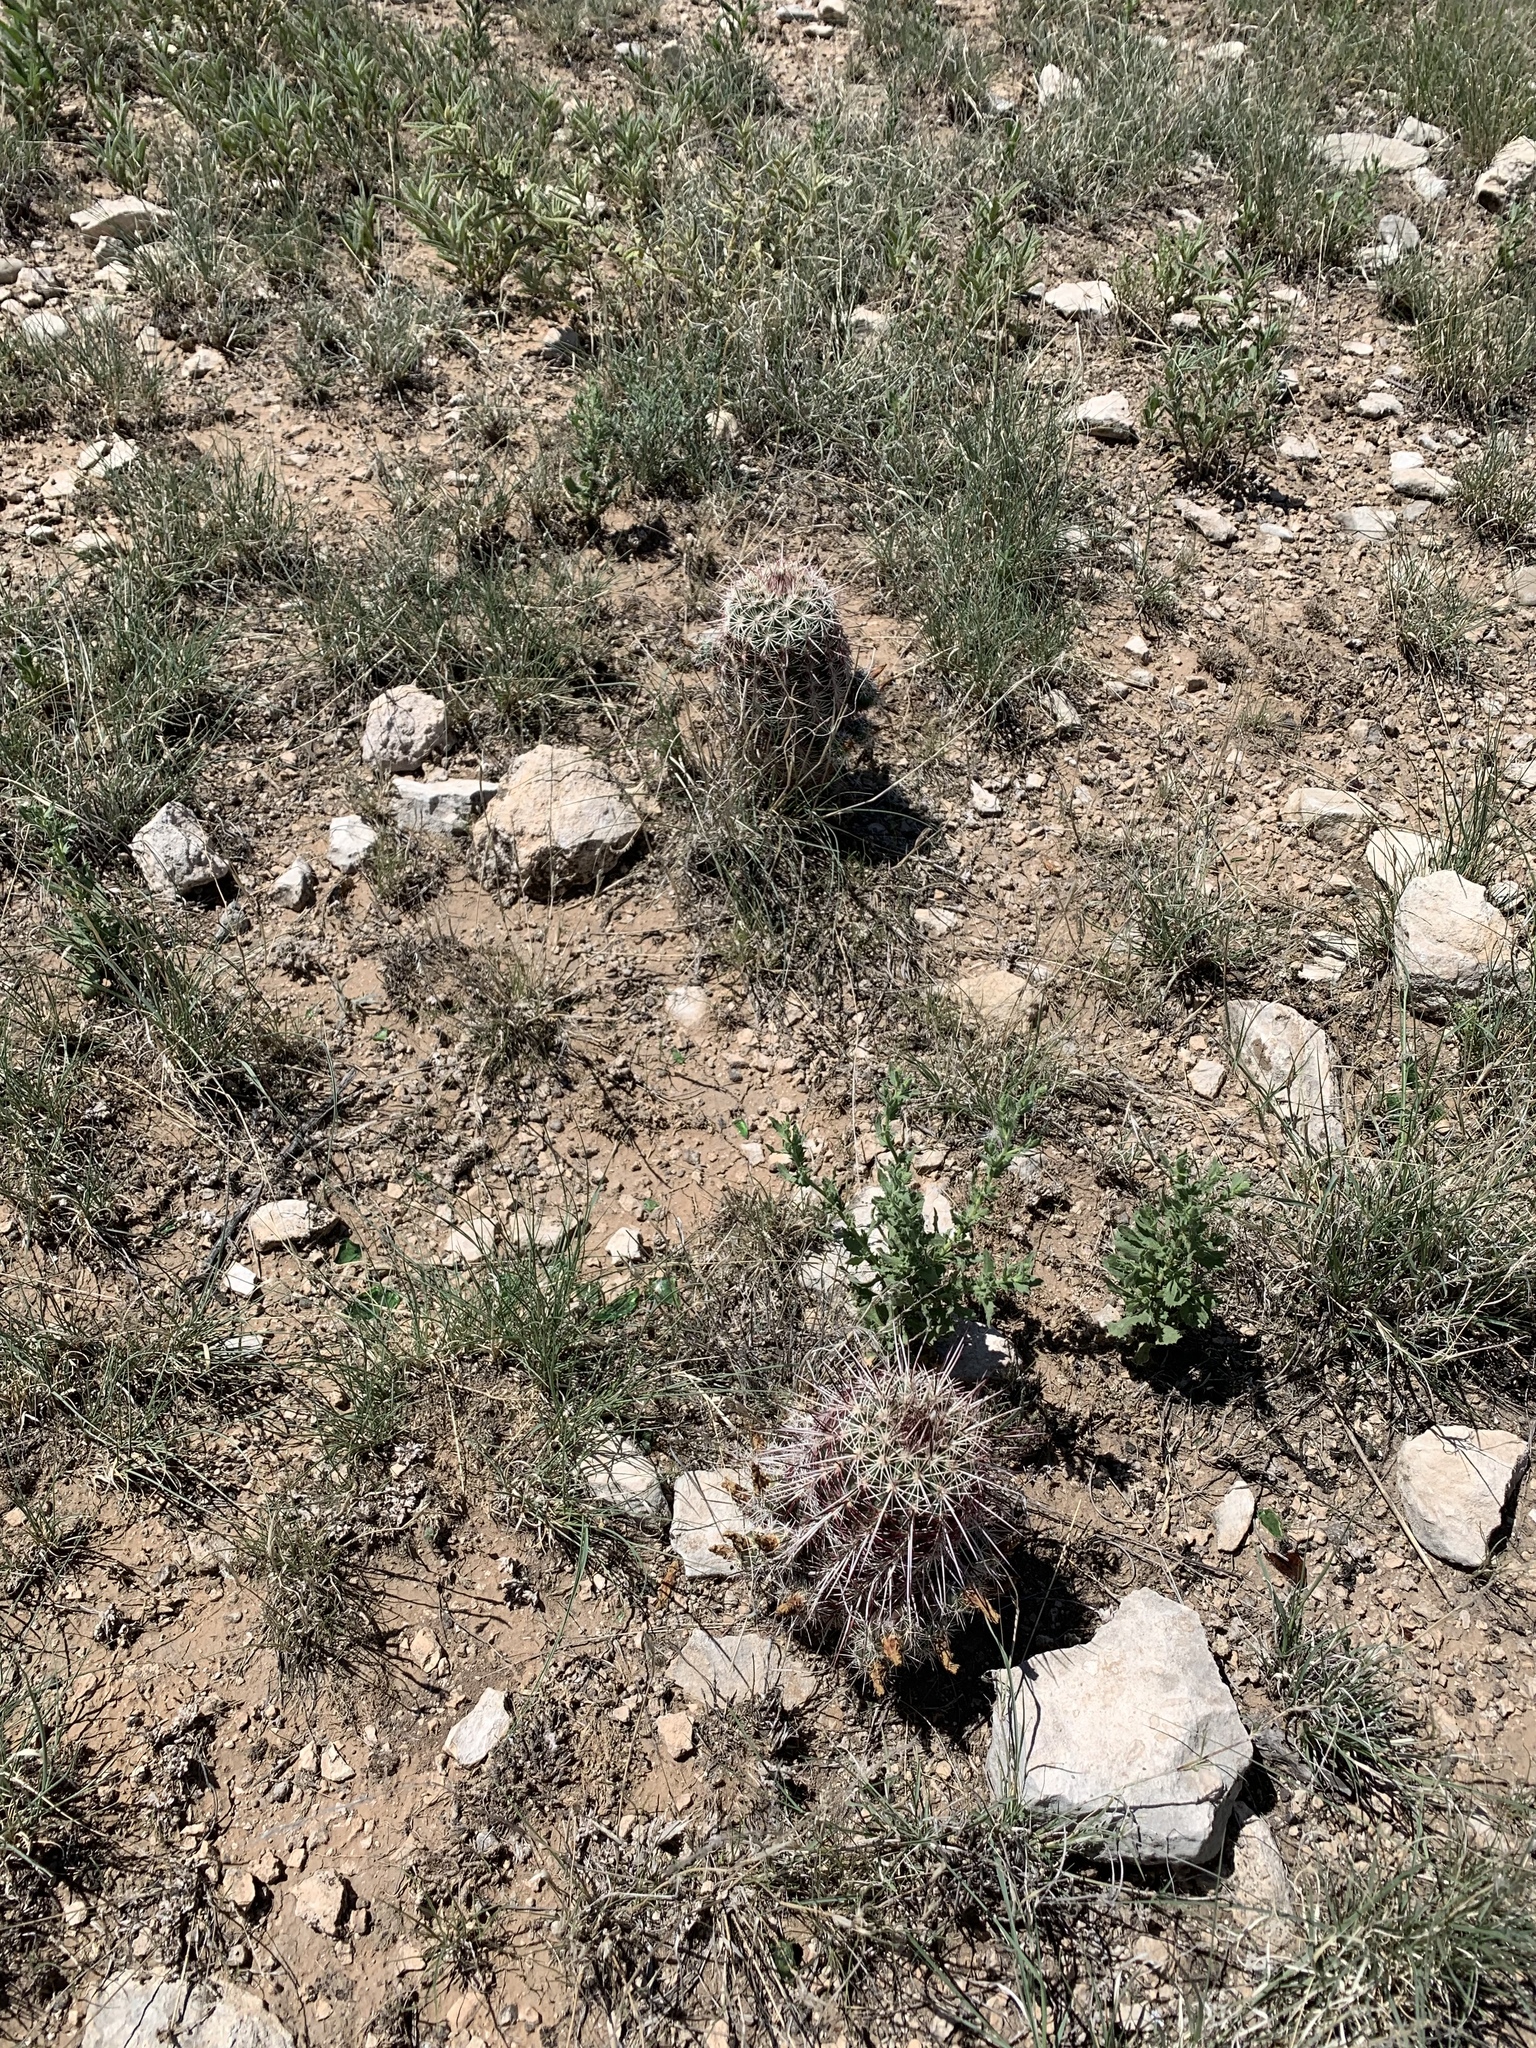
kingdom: Plantae
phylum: Tracheophyta
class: Magnoliopsida
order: Caryophyllales
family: Cactaceae
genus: Echinocereus
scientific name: Echinocereus viridiflorus
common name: Nylon hedgehog cactus
